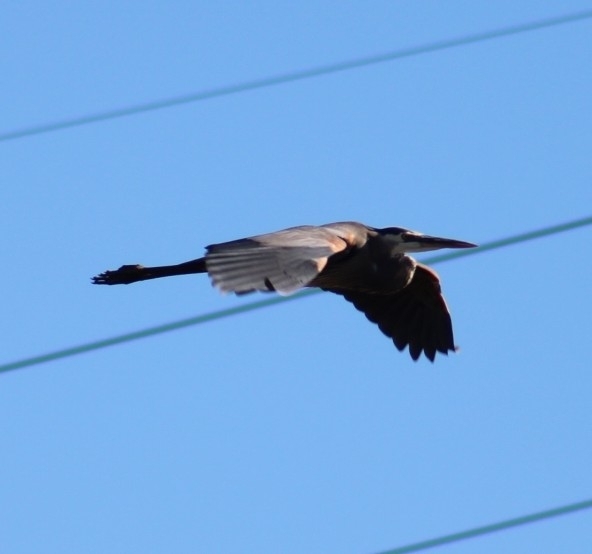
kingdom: Animalia
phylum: Chordata
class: Aves
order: Pelecaniformes
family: Ardeidae
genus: Ardea
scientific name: Ardea herodias
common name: Great blue heron
